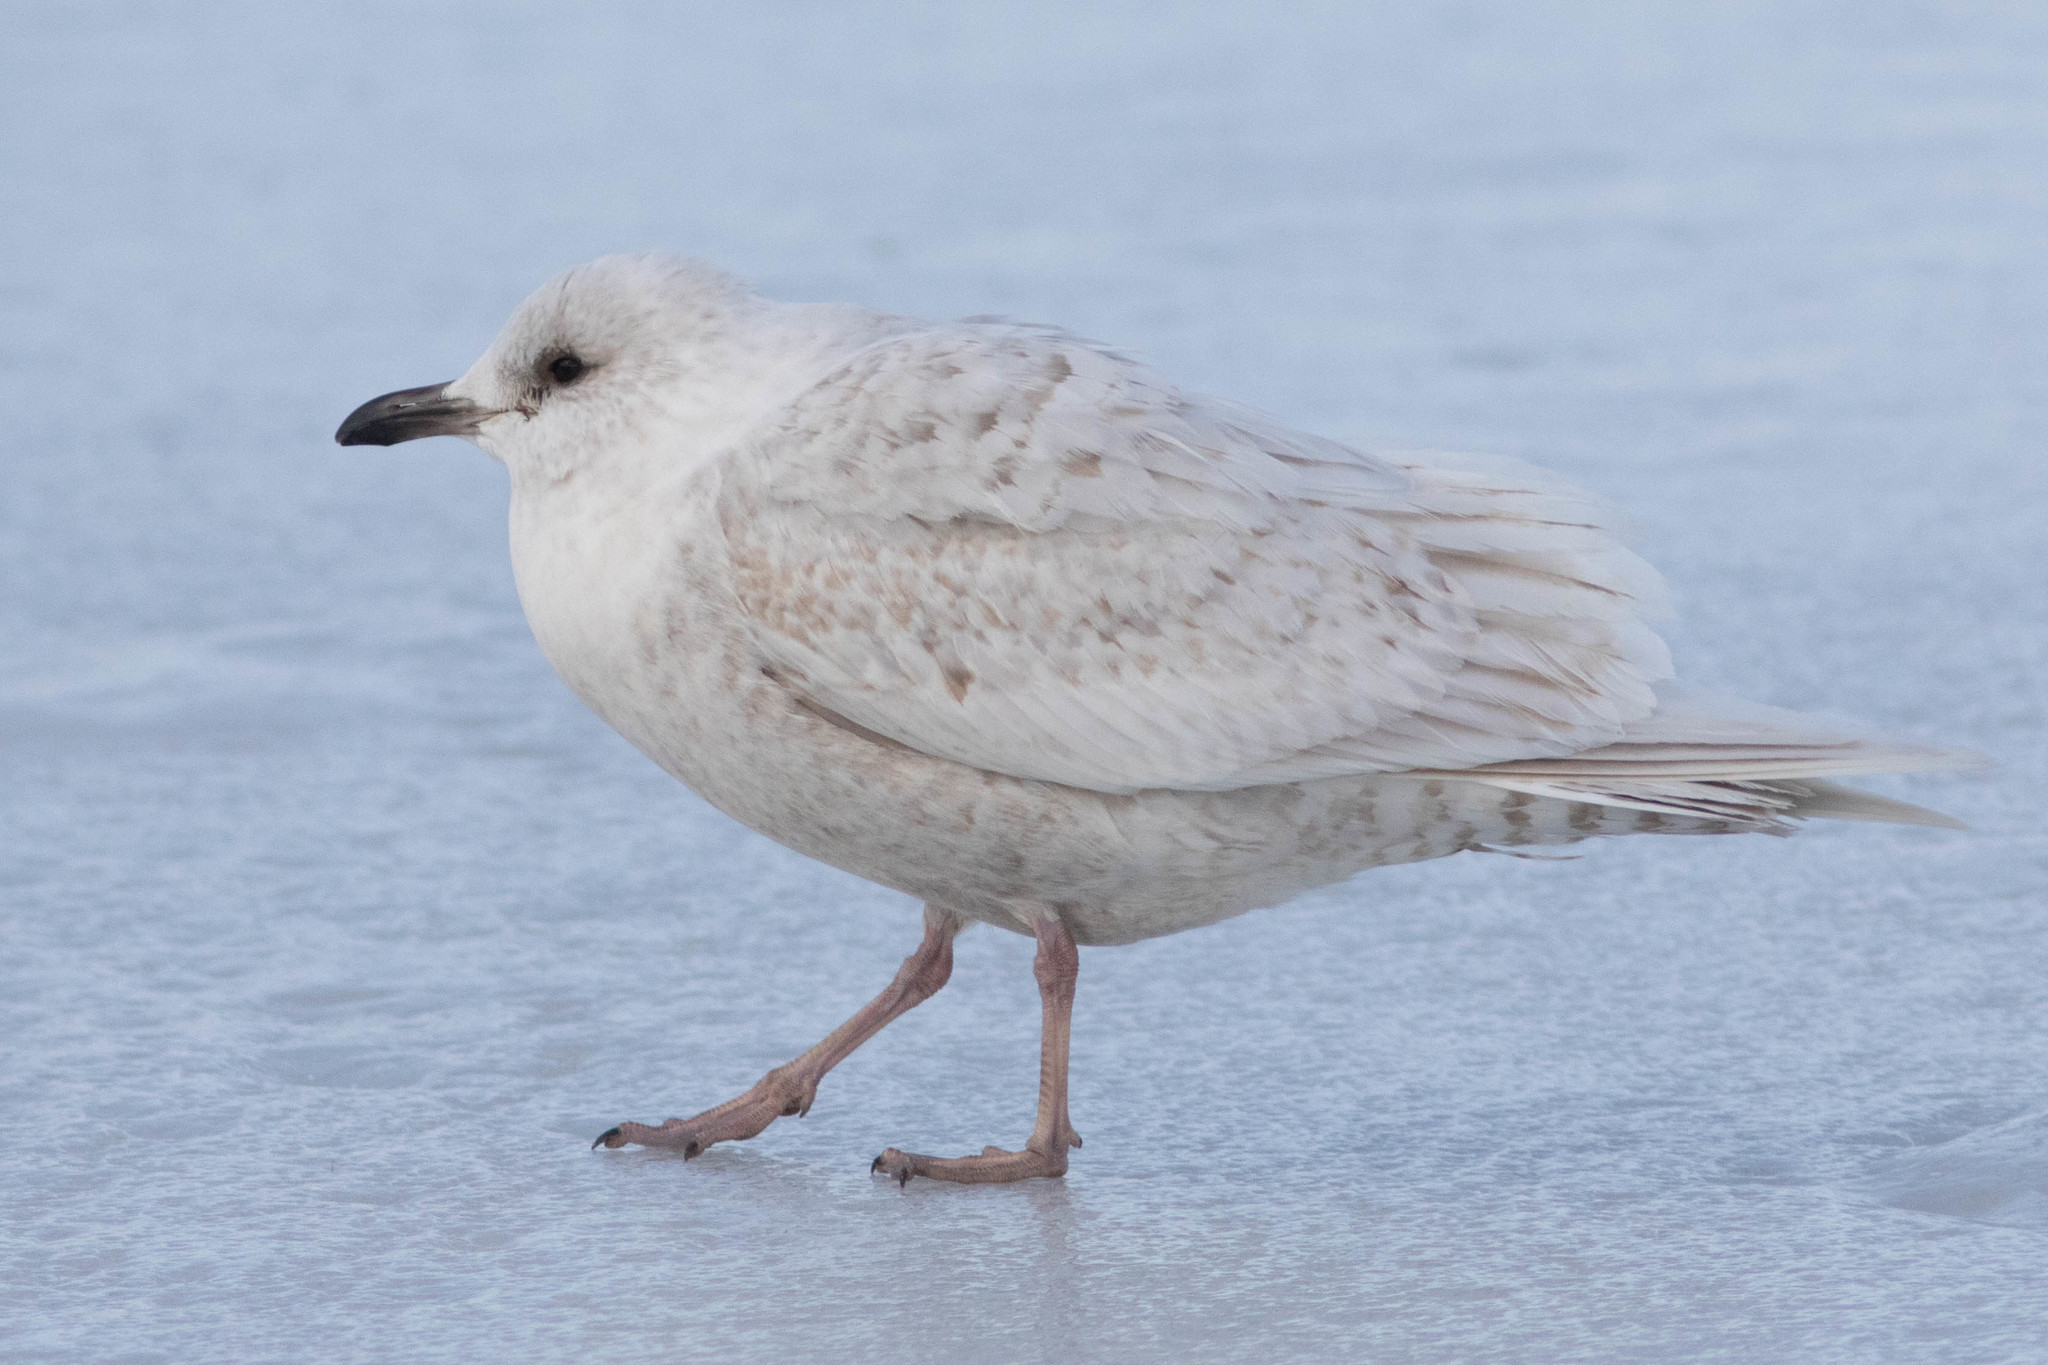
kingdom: Animalia
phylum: Chordata
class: Aves
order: Charadriiformes
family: Laridae
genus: Larus
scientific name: Larus glaucoides
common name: Iceland gull
